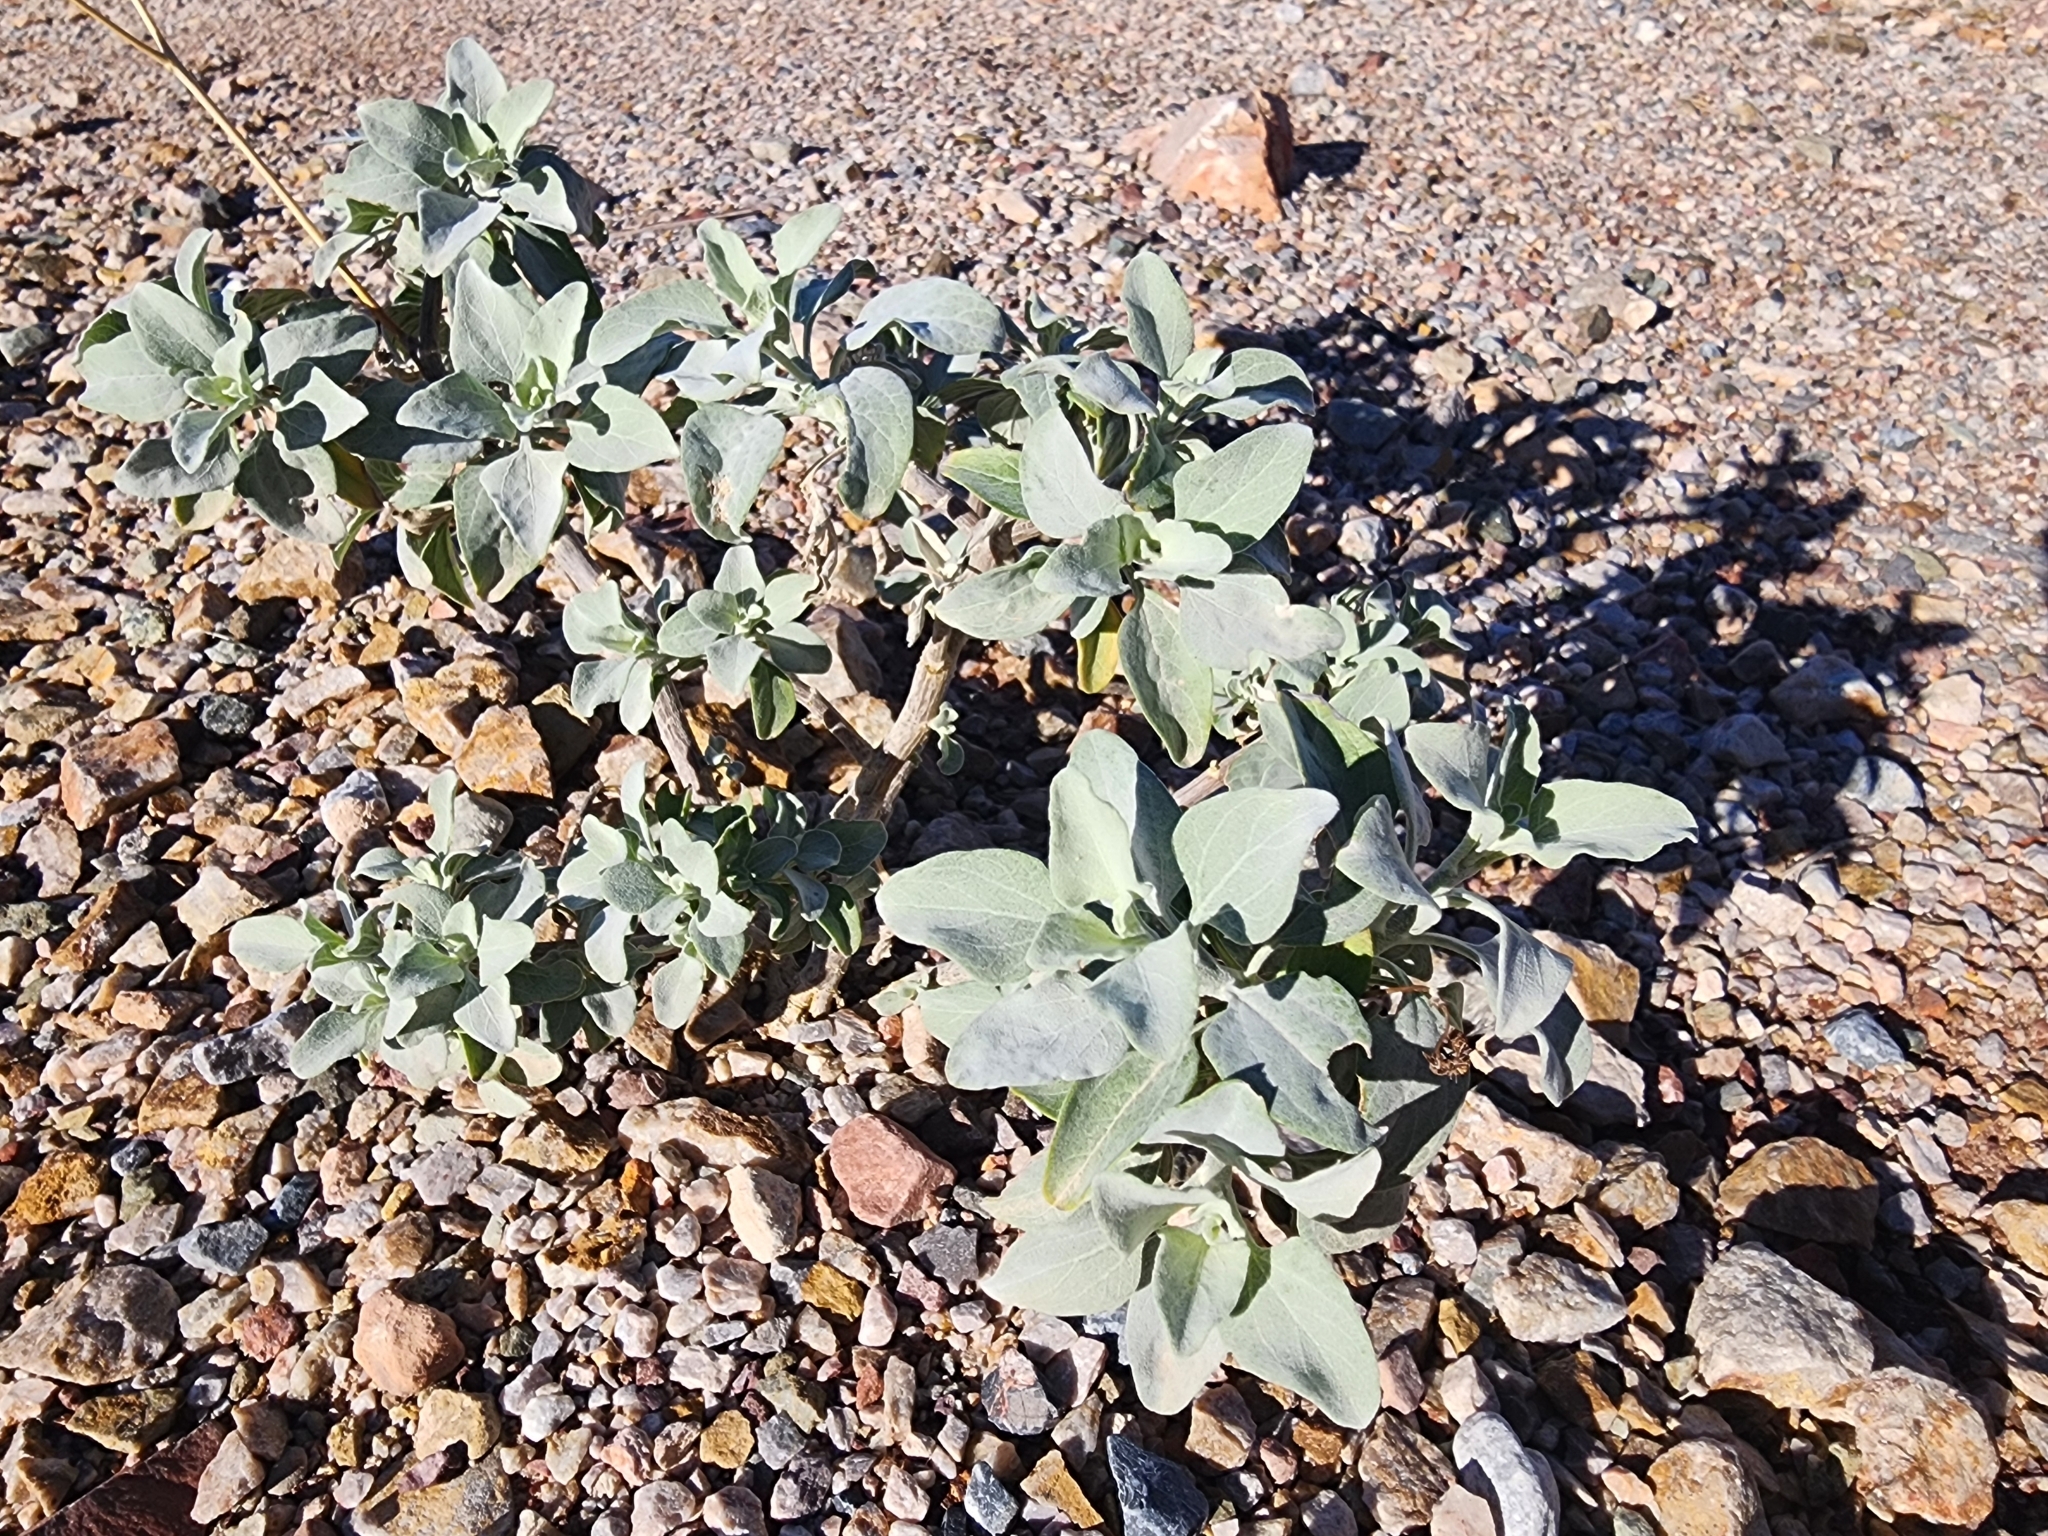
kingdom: Plantae
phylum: Tracheophyta
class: Magnoliopsida
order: Asterales
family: Asteraceae
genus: Encelia
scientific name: Encelia farinosa
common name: Brittlebush
